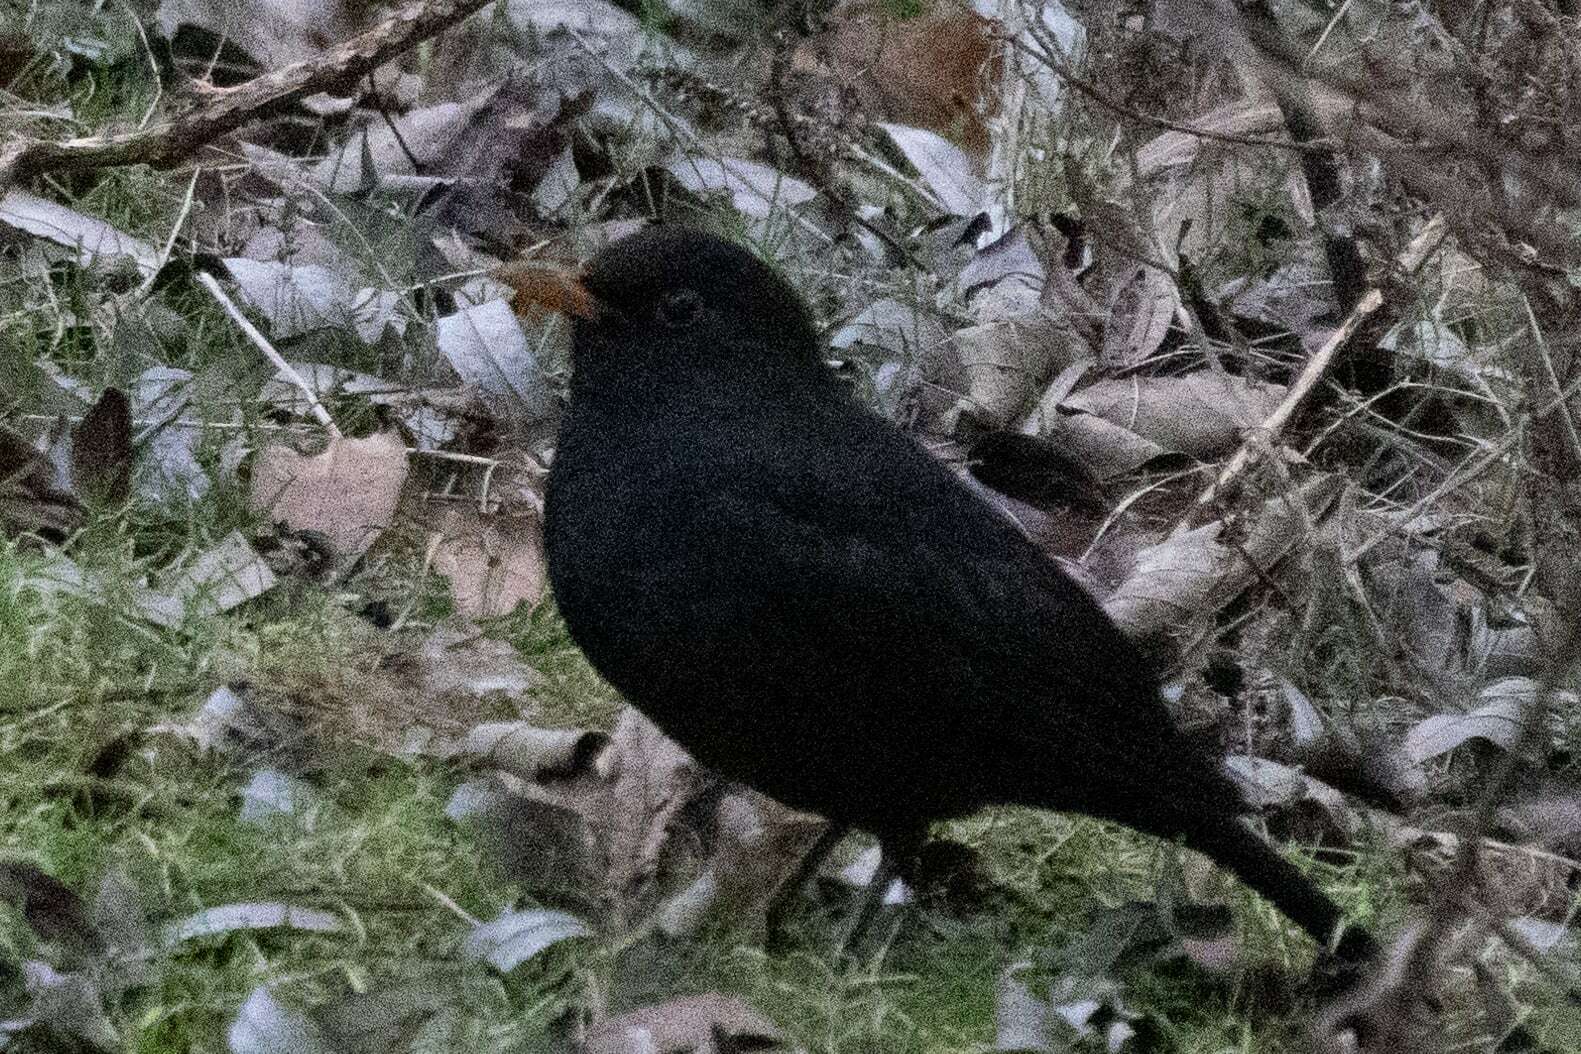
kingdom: Animalia
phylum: Chordata
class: Aves
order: Passeriformes
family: Turdidae
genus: Turdus
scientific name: Turdus merula
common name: Common blackbird
